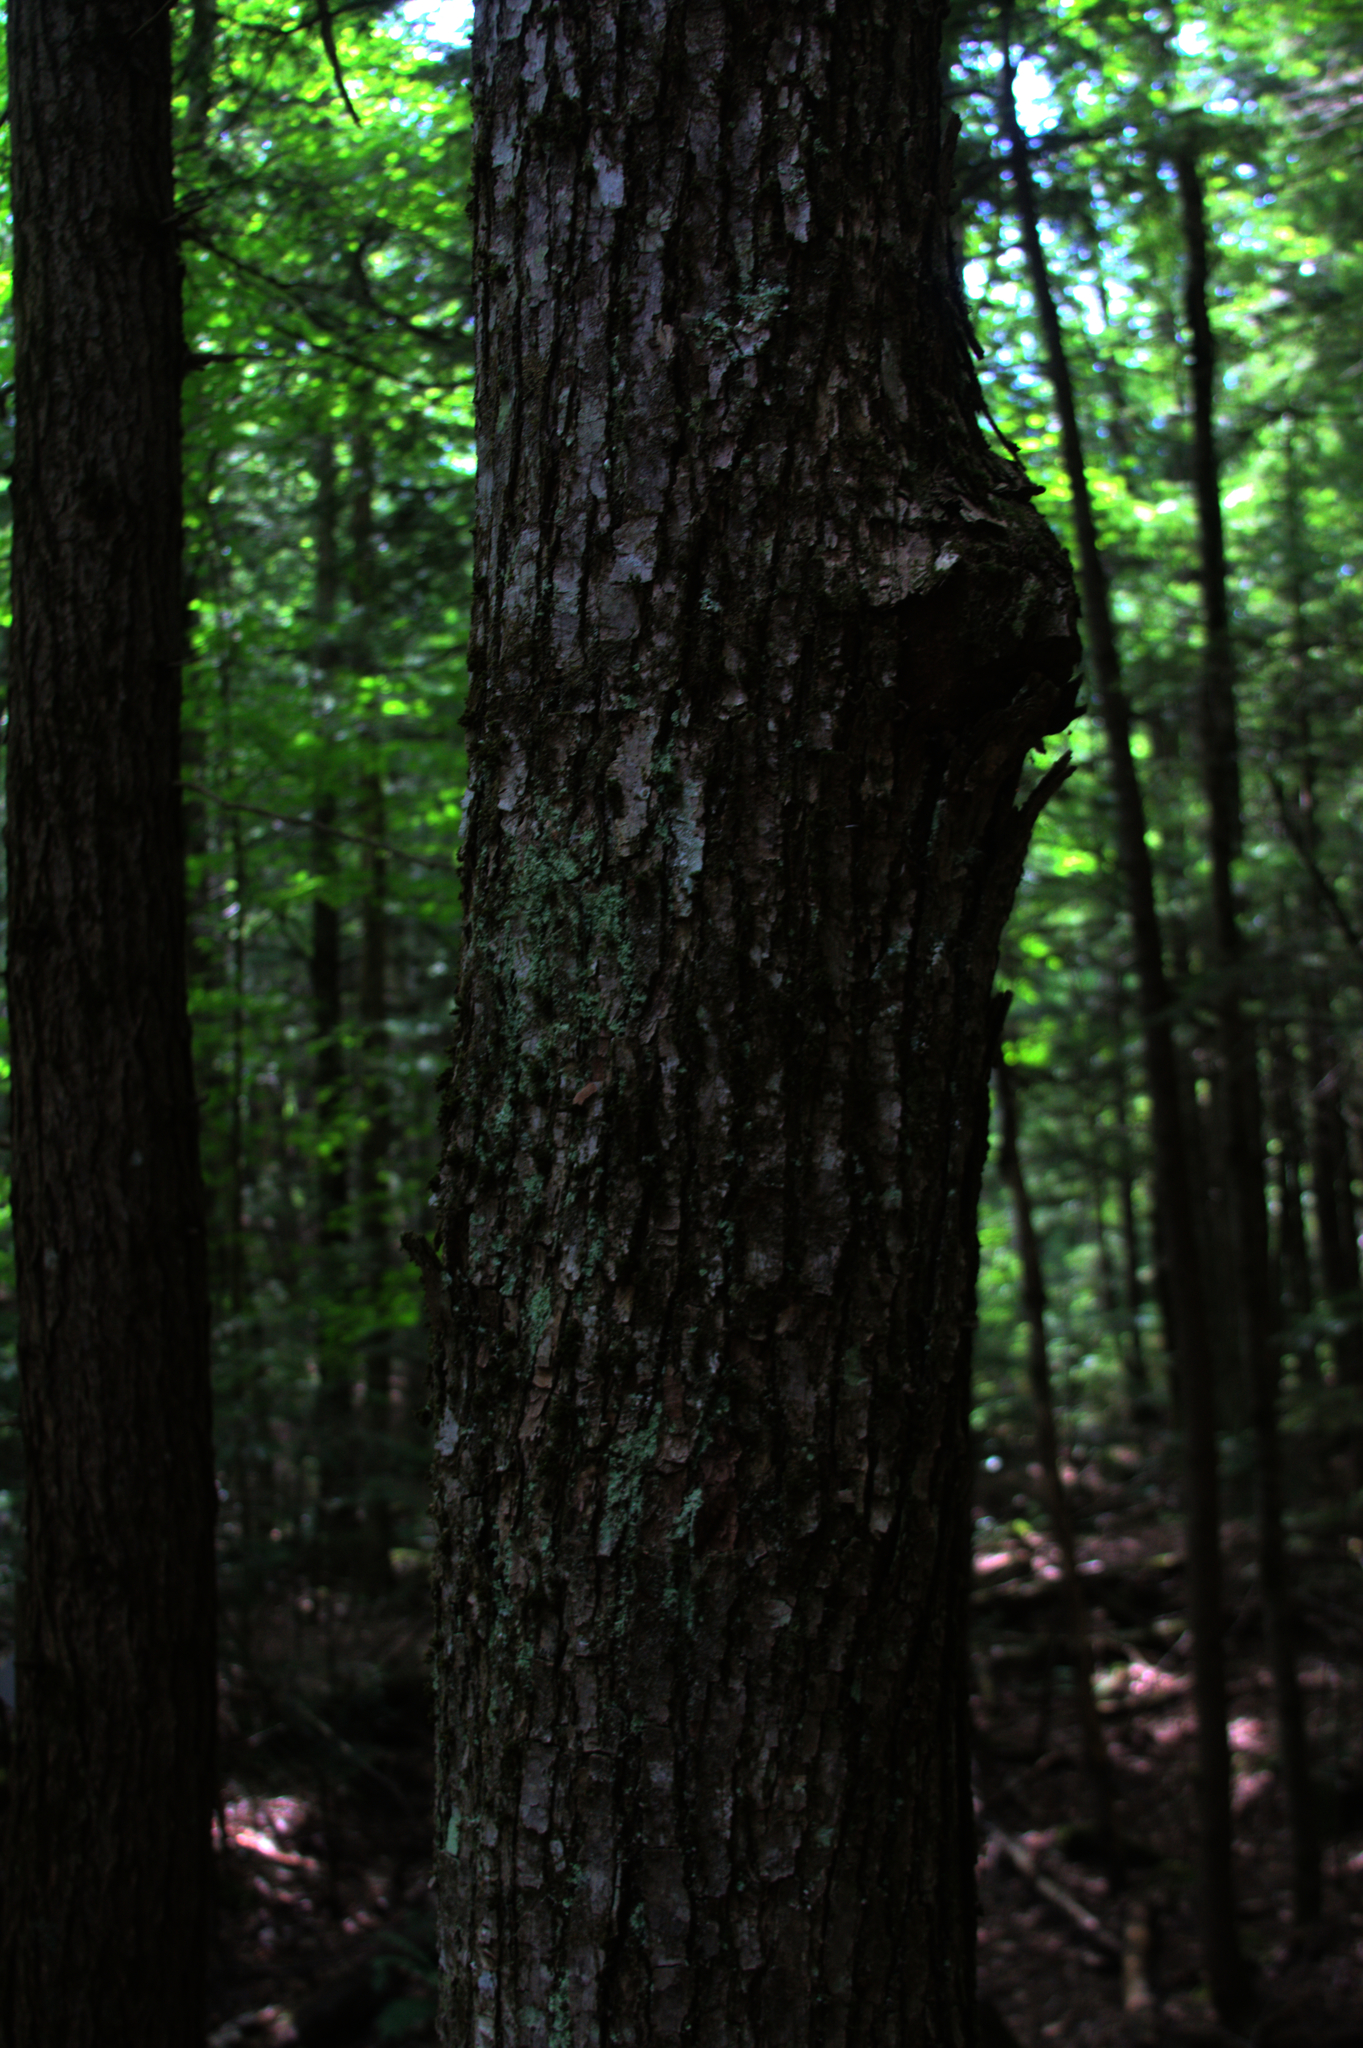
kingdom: Plantae
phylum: Tracheophyta
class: Magnoliopsida
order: Sapindales
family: Sapindaceae
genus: Acer
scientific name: Acer rubrum
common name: Red maple
